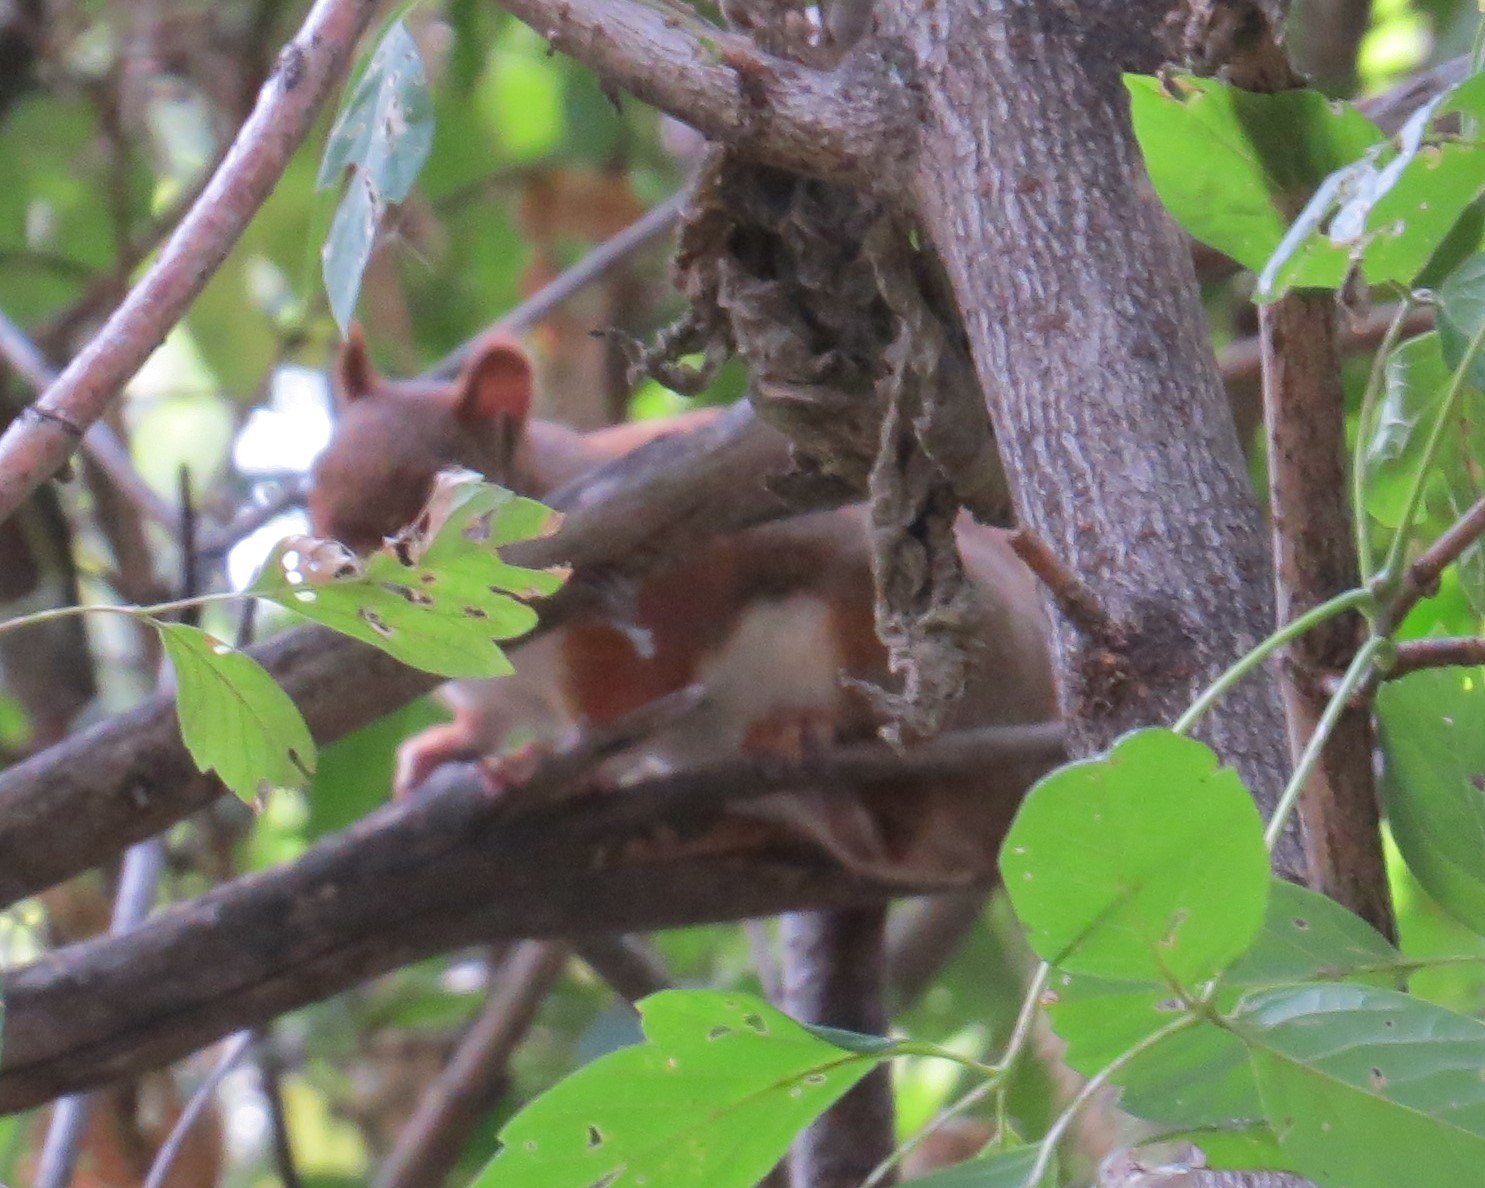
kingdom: Animalia
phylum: Chordata
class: Mammalia
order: Rodentia
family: Sciuridae
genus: Tamiasciurus
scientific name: Tamiasciurus hudsonicus
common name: Red squirrel
